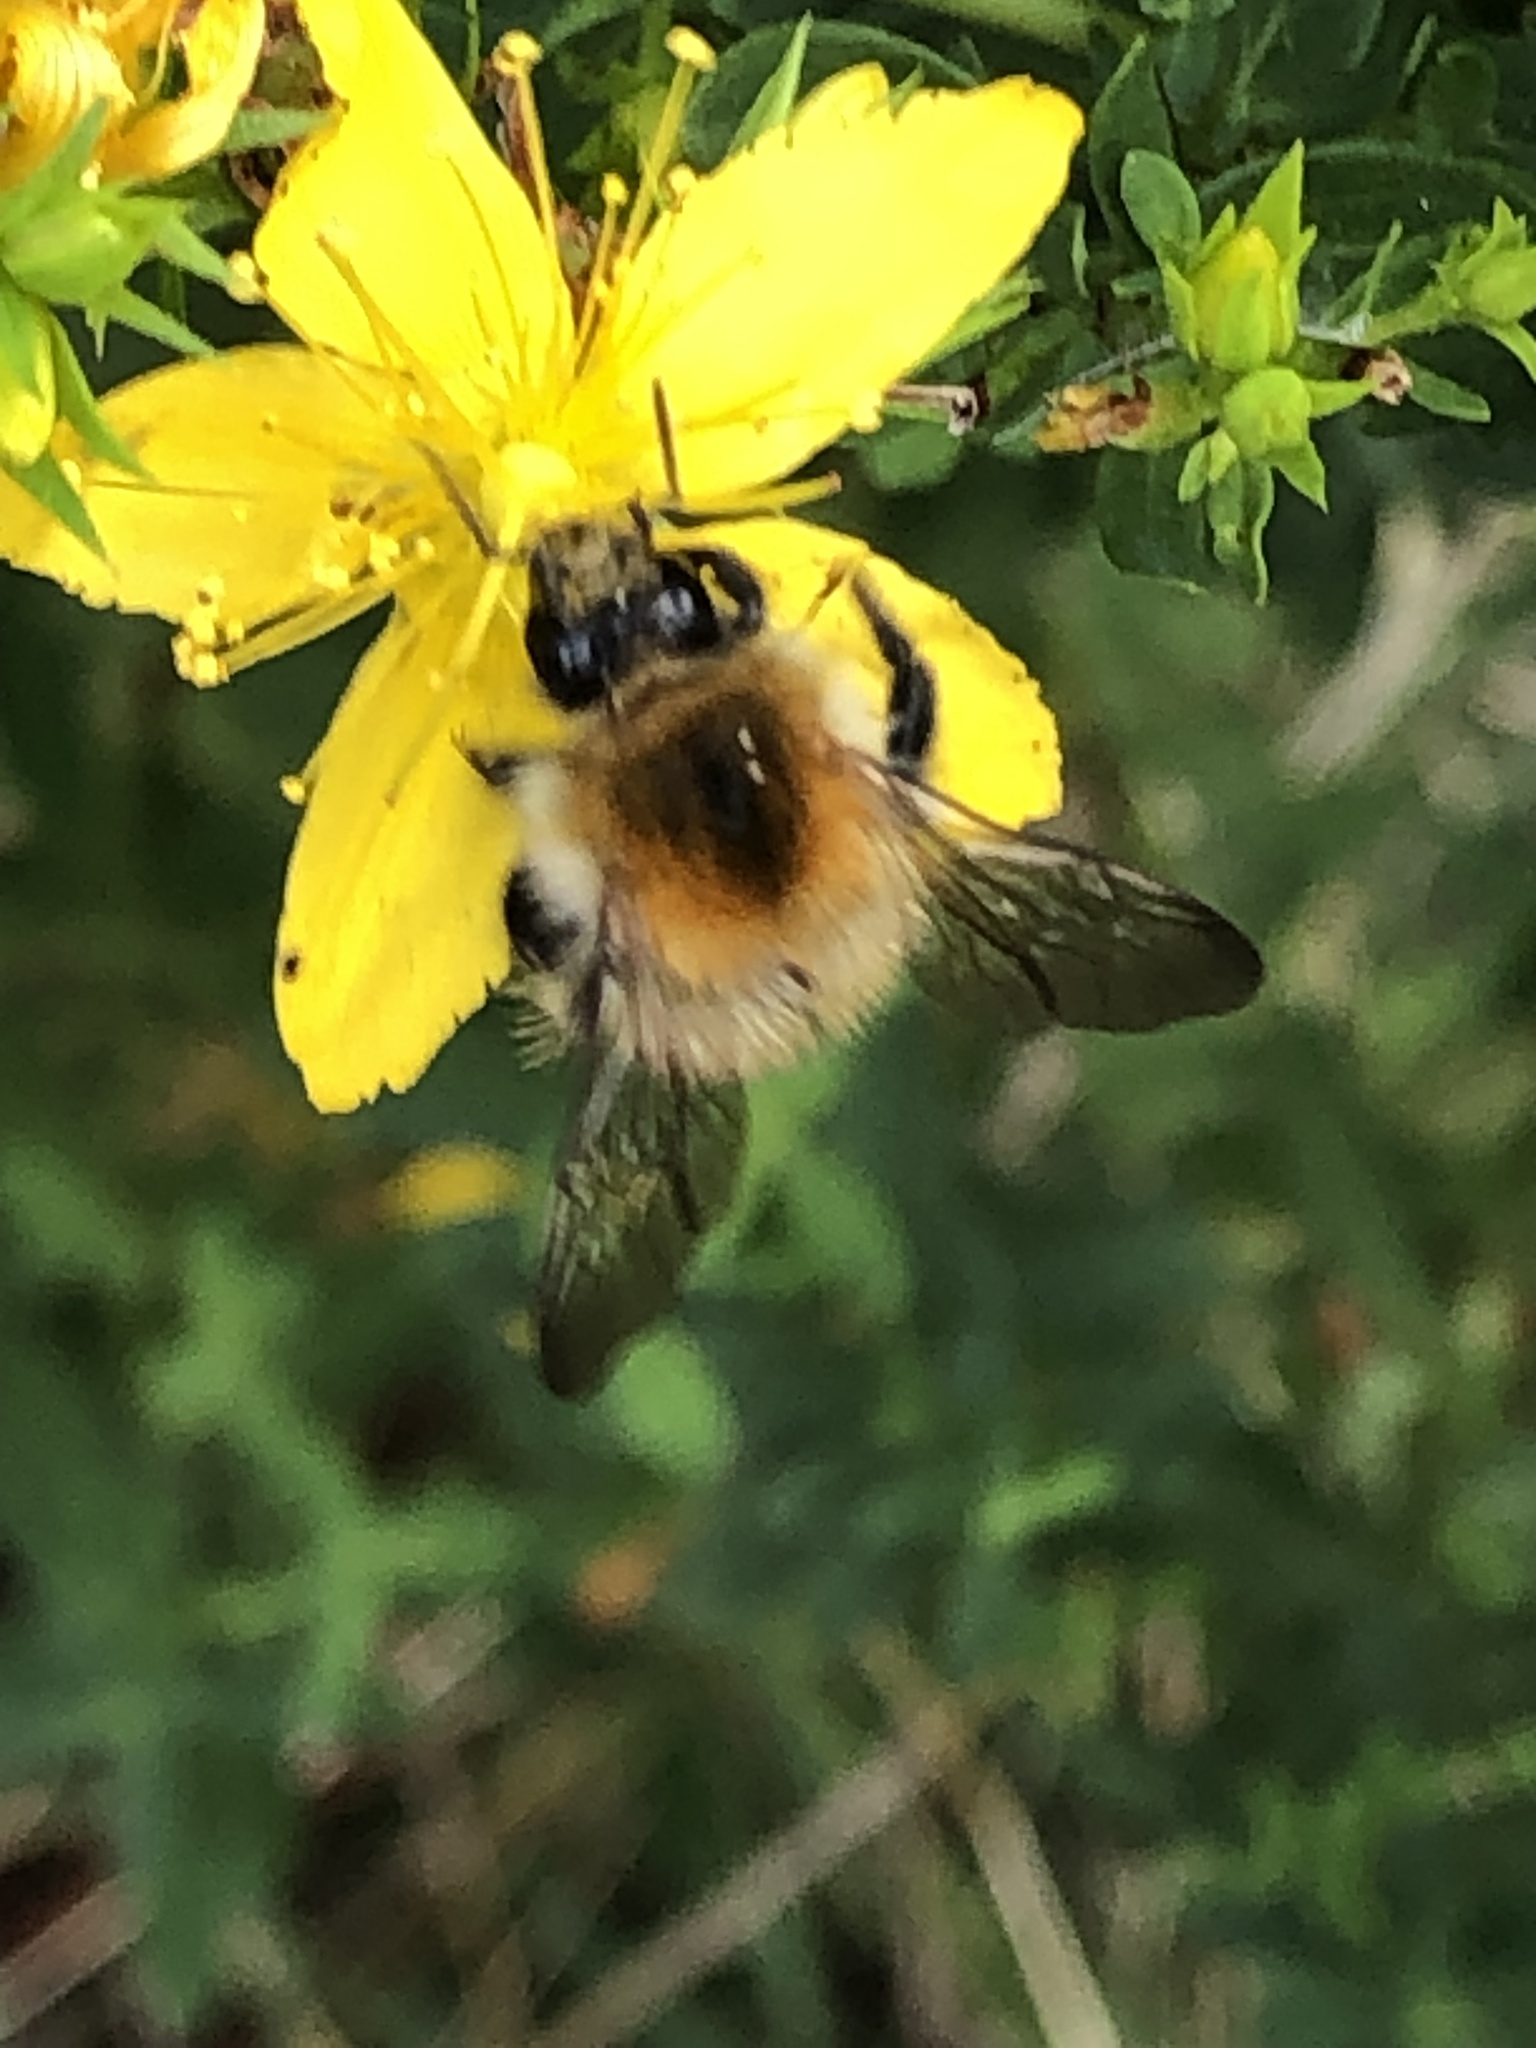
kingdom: Animalia
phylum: Arthropoda
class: Insecta
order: Hymenoptera
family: Apidae
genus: Bombus
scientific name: Bombus pascuorum
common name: Common carder bee
